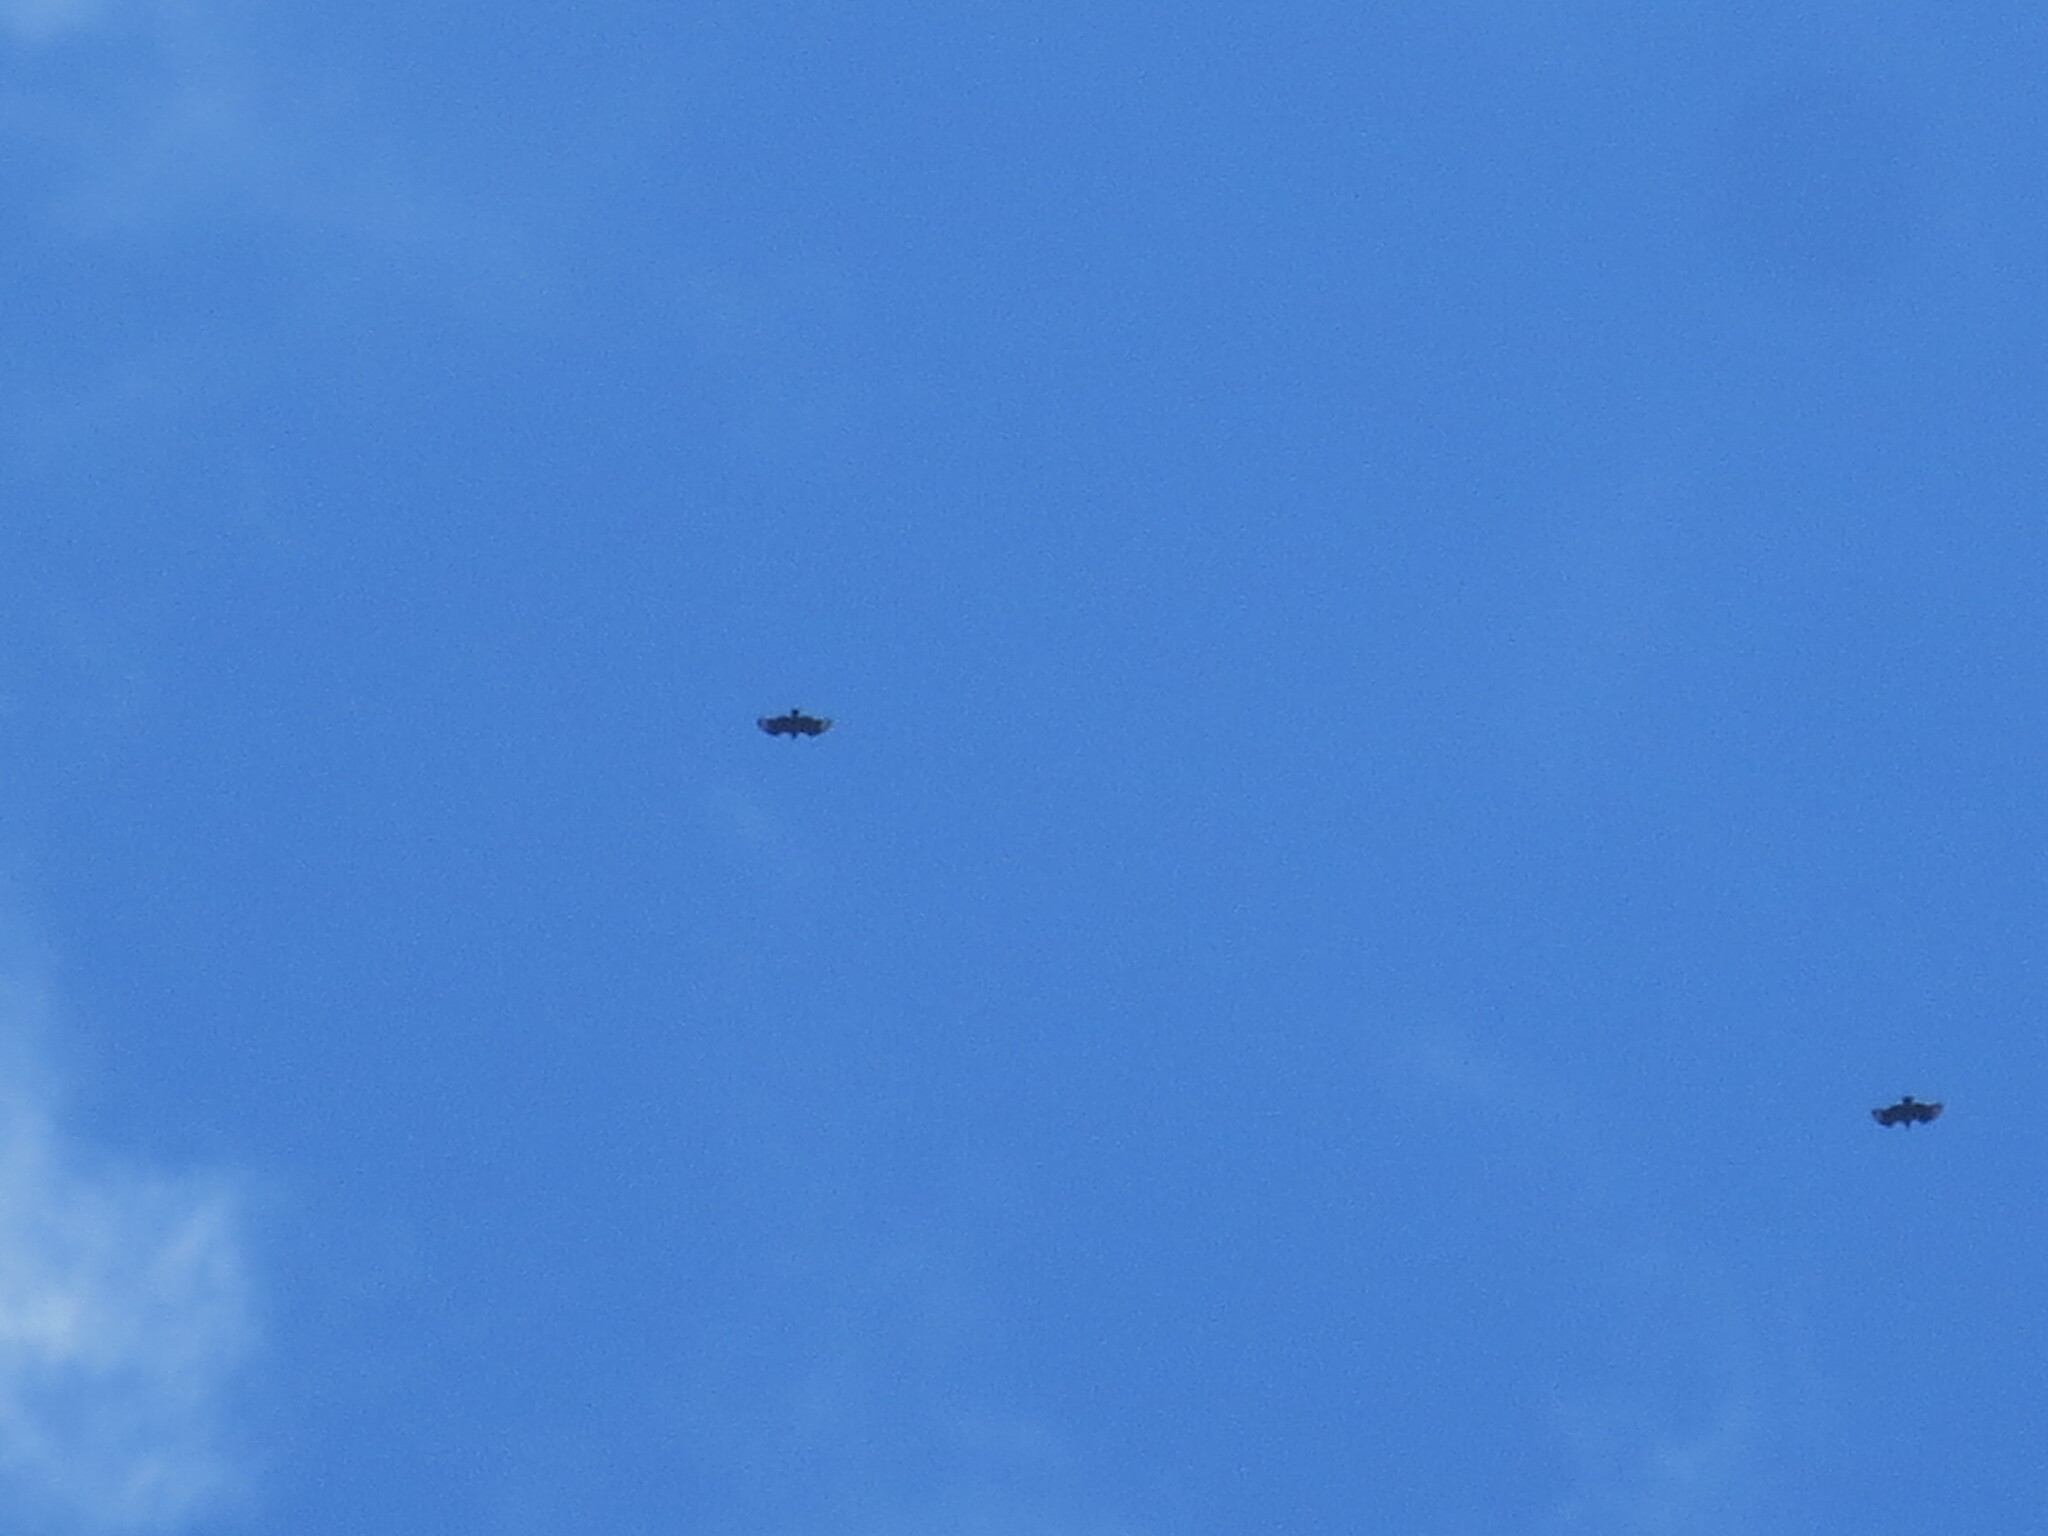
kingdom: Animalia
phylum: Chordata
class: Aves
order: Accipitriformes
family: Cathartidae
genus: Coragyps
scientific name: Coragyps atratus
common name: Black vulture
